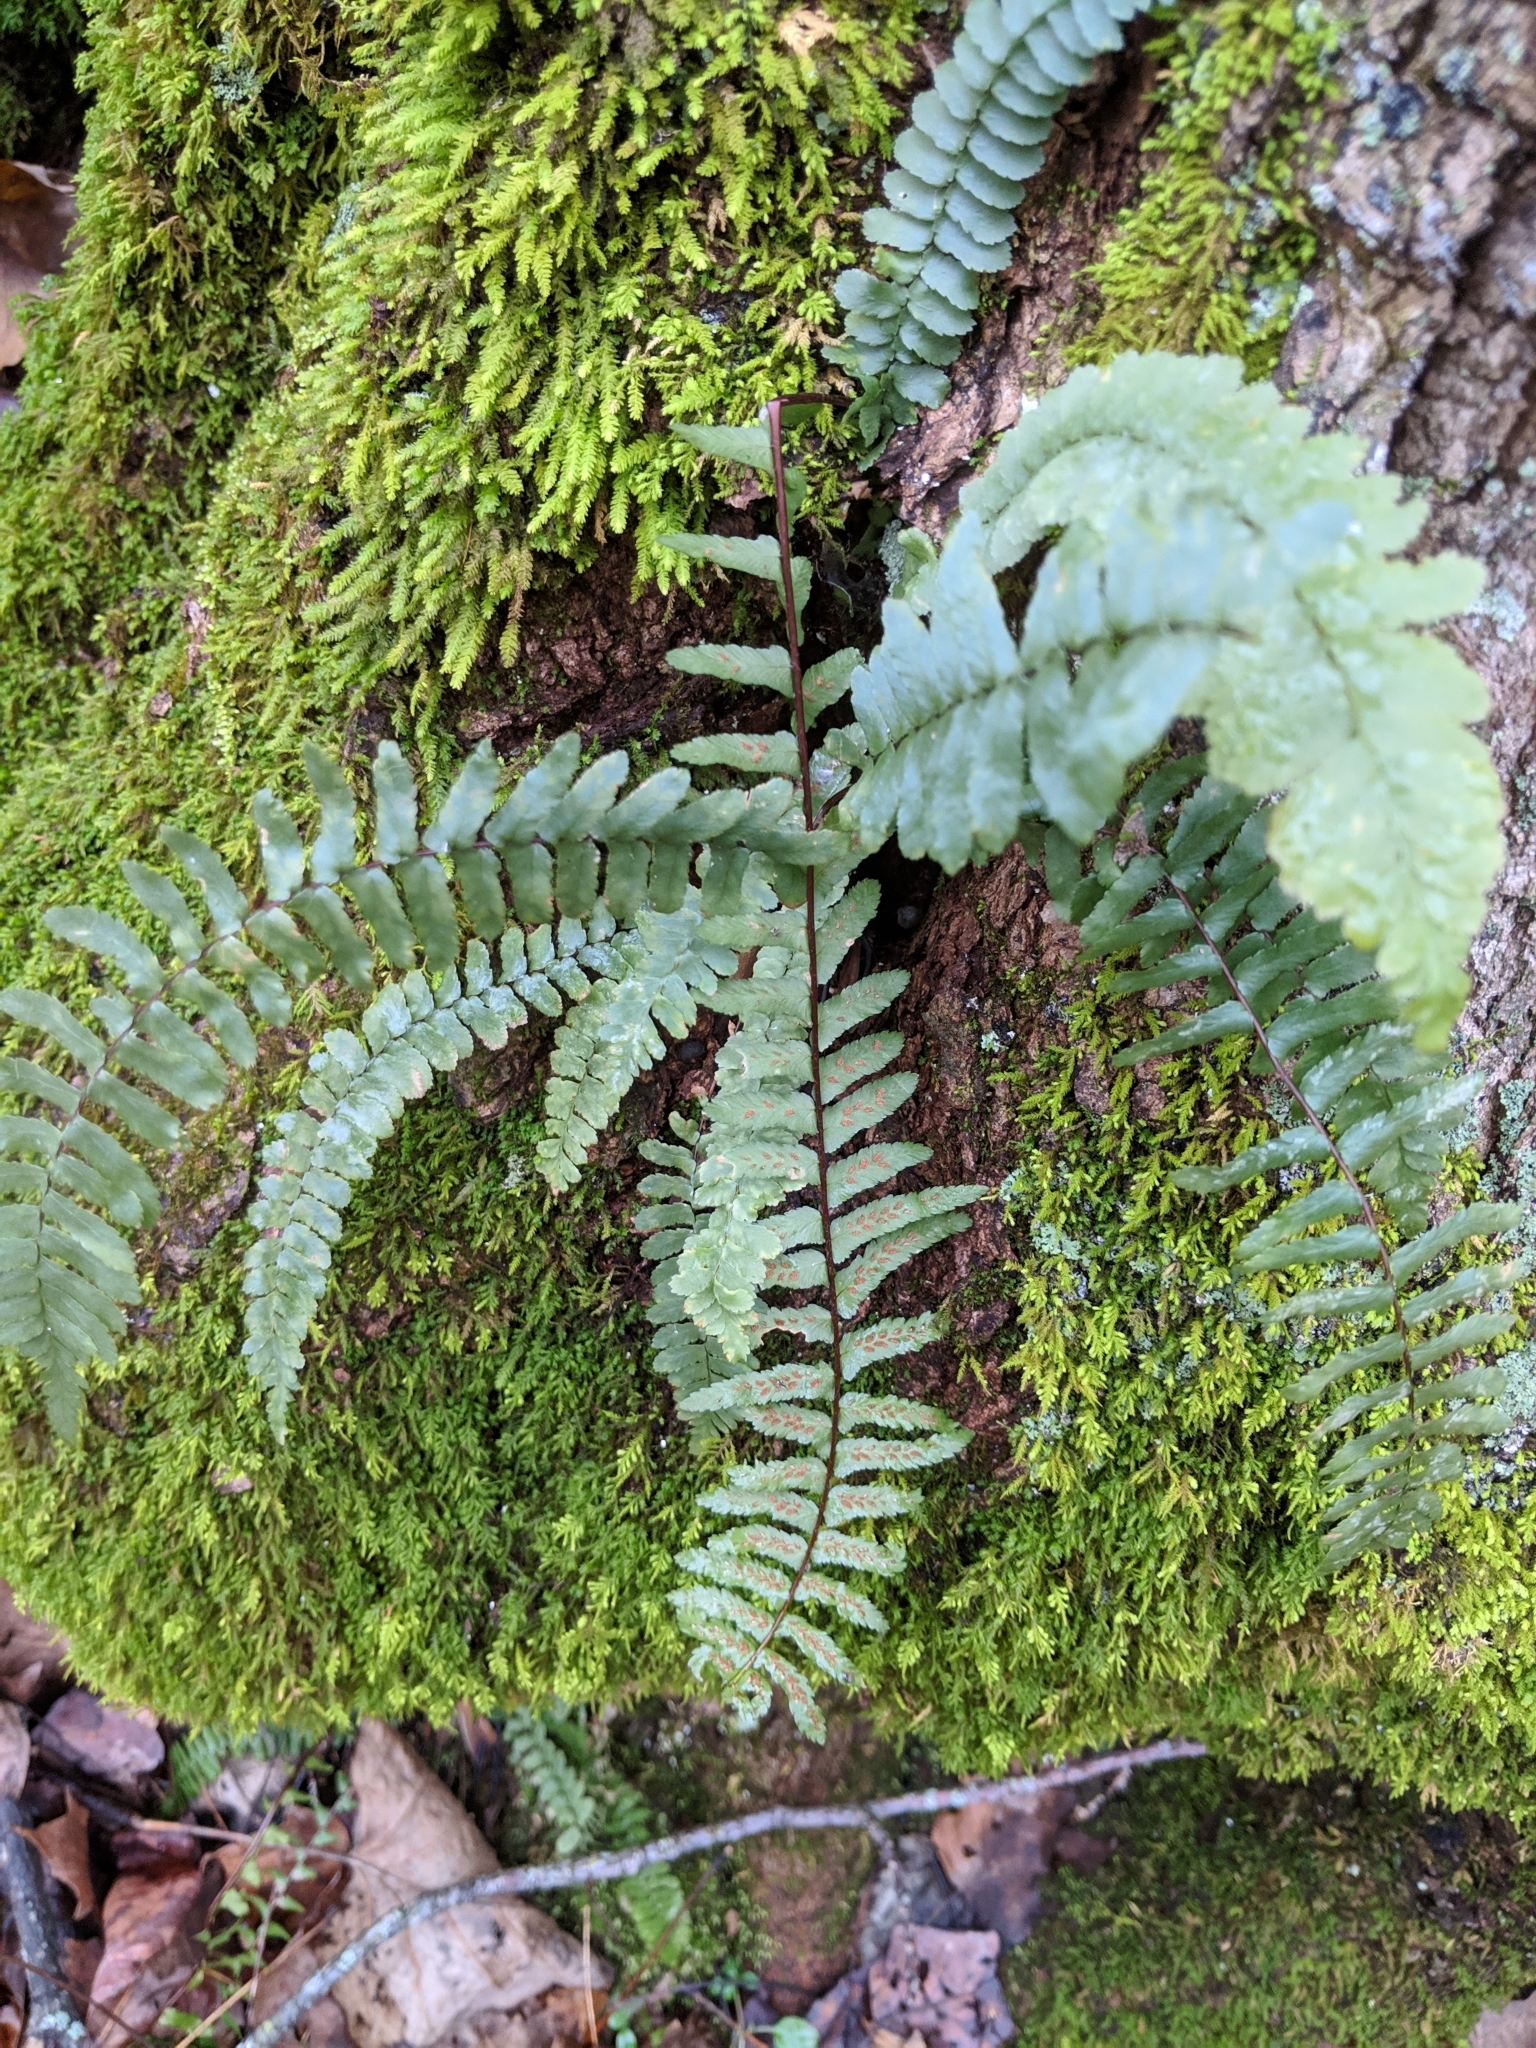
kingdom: Plantae
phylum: Tracheophyta
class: Polypodiopsida
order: Polypodiales
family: Aspleniaceae
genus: Asplenium
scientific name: Asplenium platyneuron
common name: Ebony spleenwort
